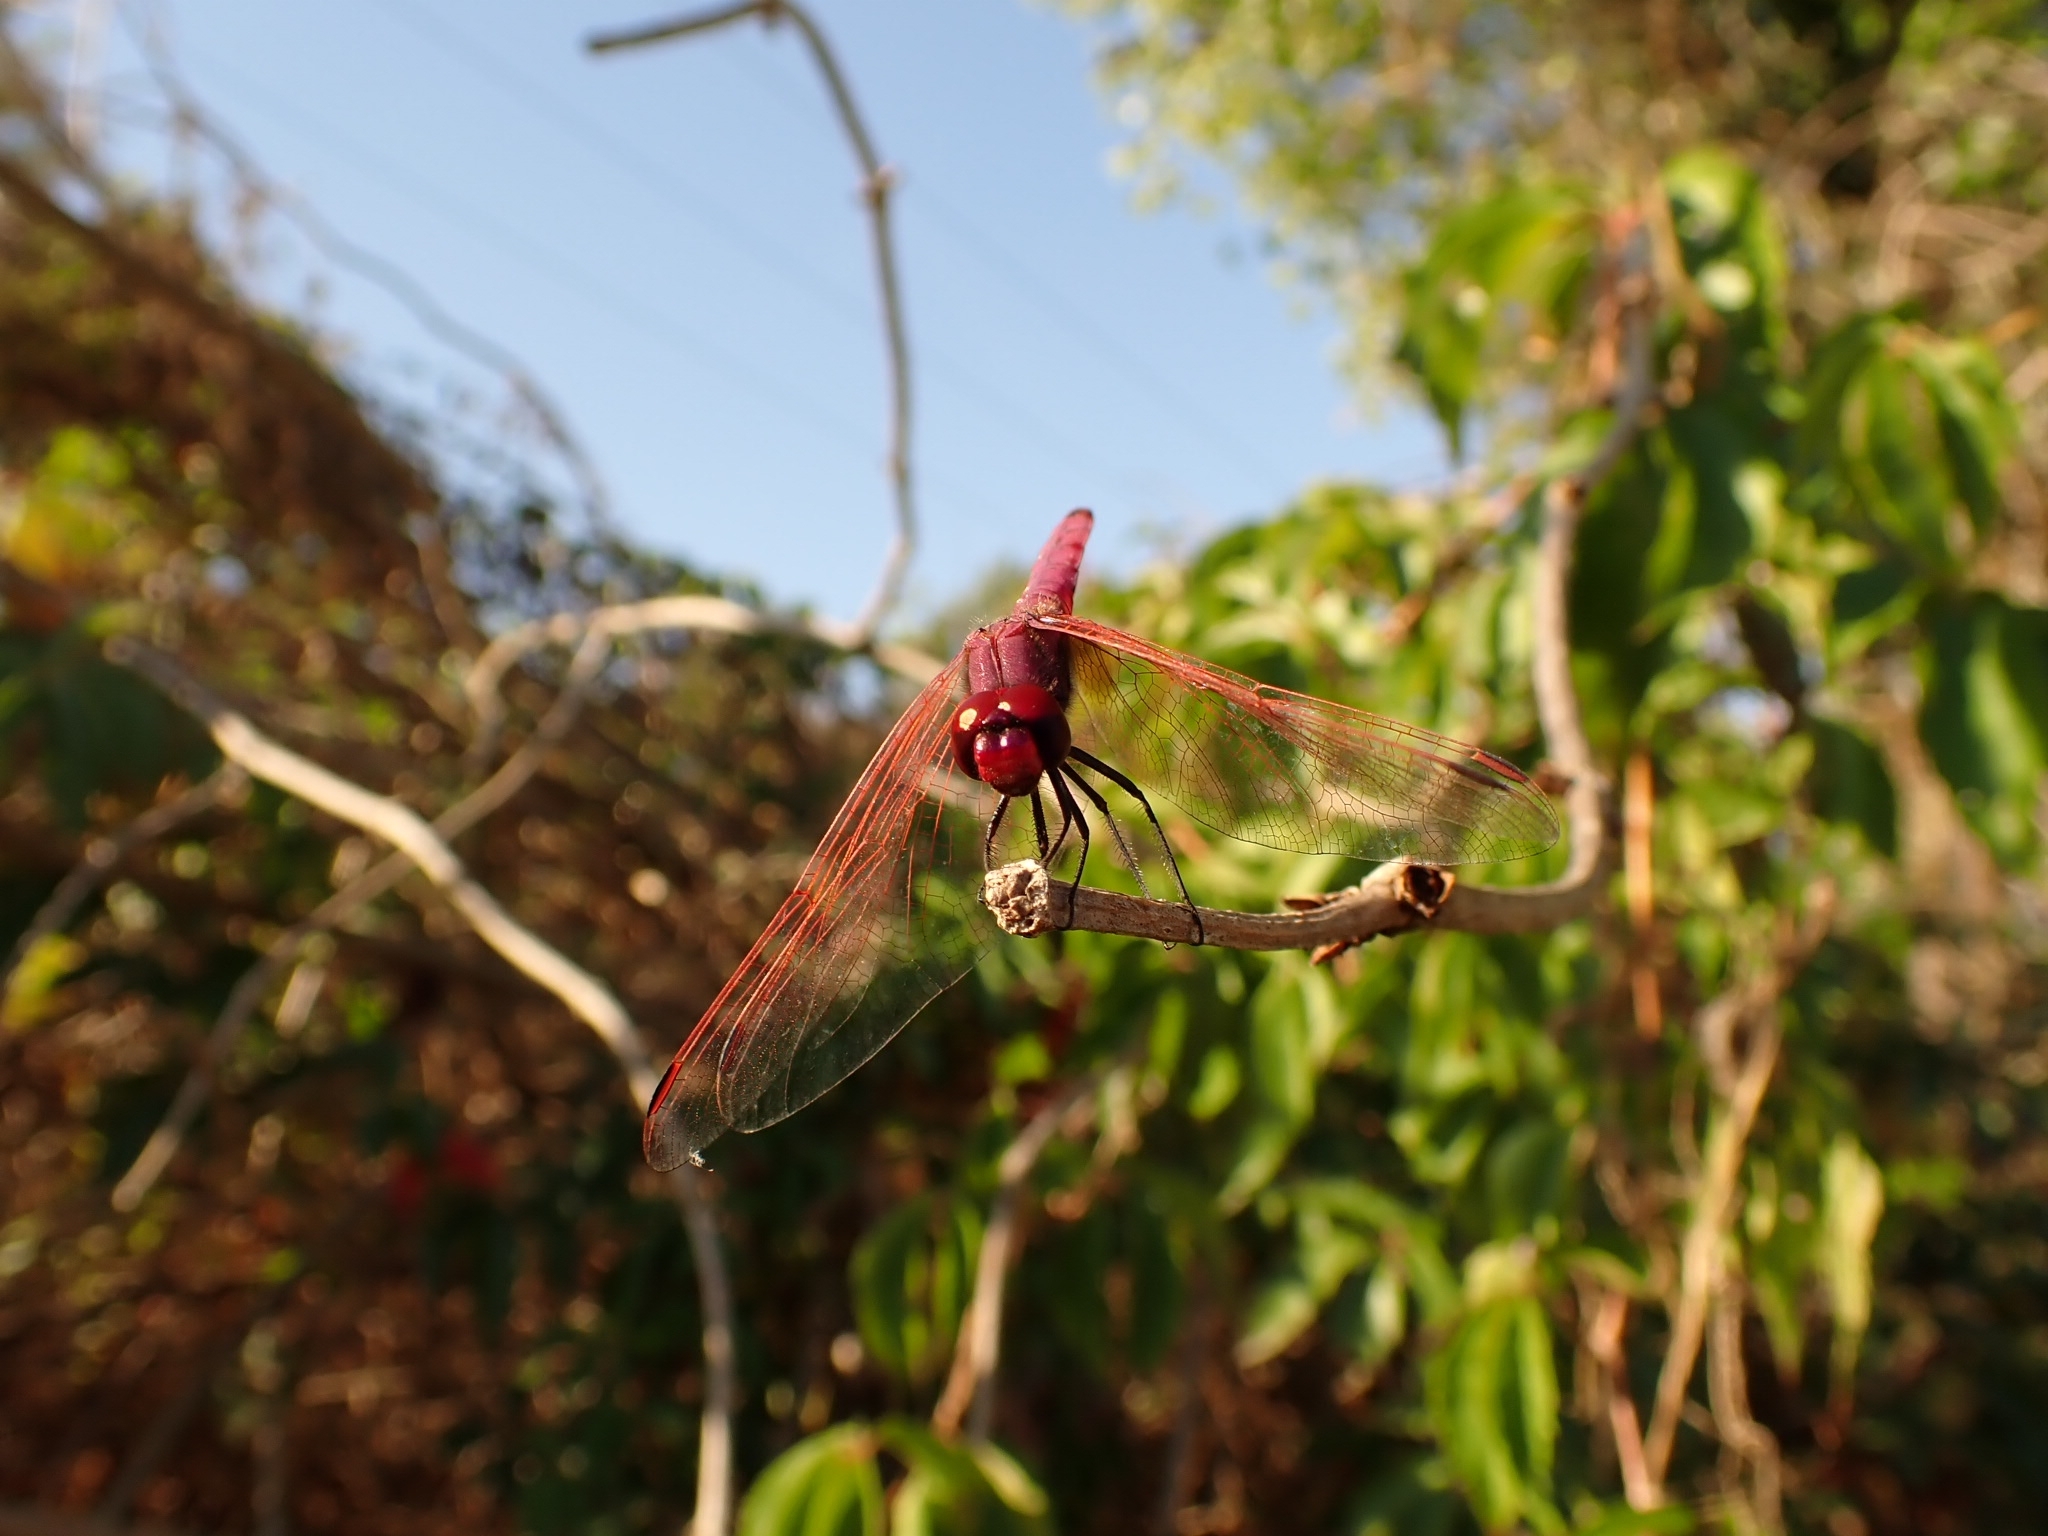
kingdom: Animalia
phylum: Arthropoda
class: Insecta
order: Odonata
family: Libellulidae
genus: Trithemis
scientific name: Trithemis annulata
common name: Violet dropwing
